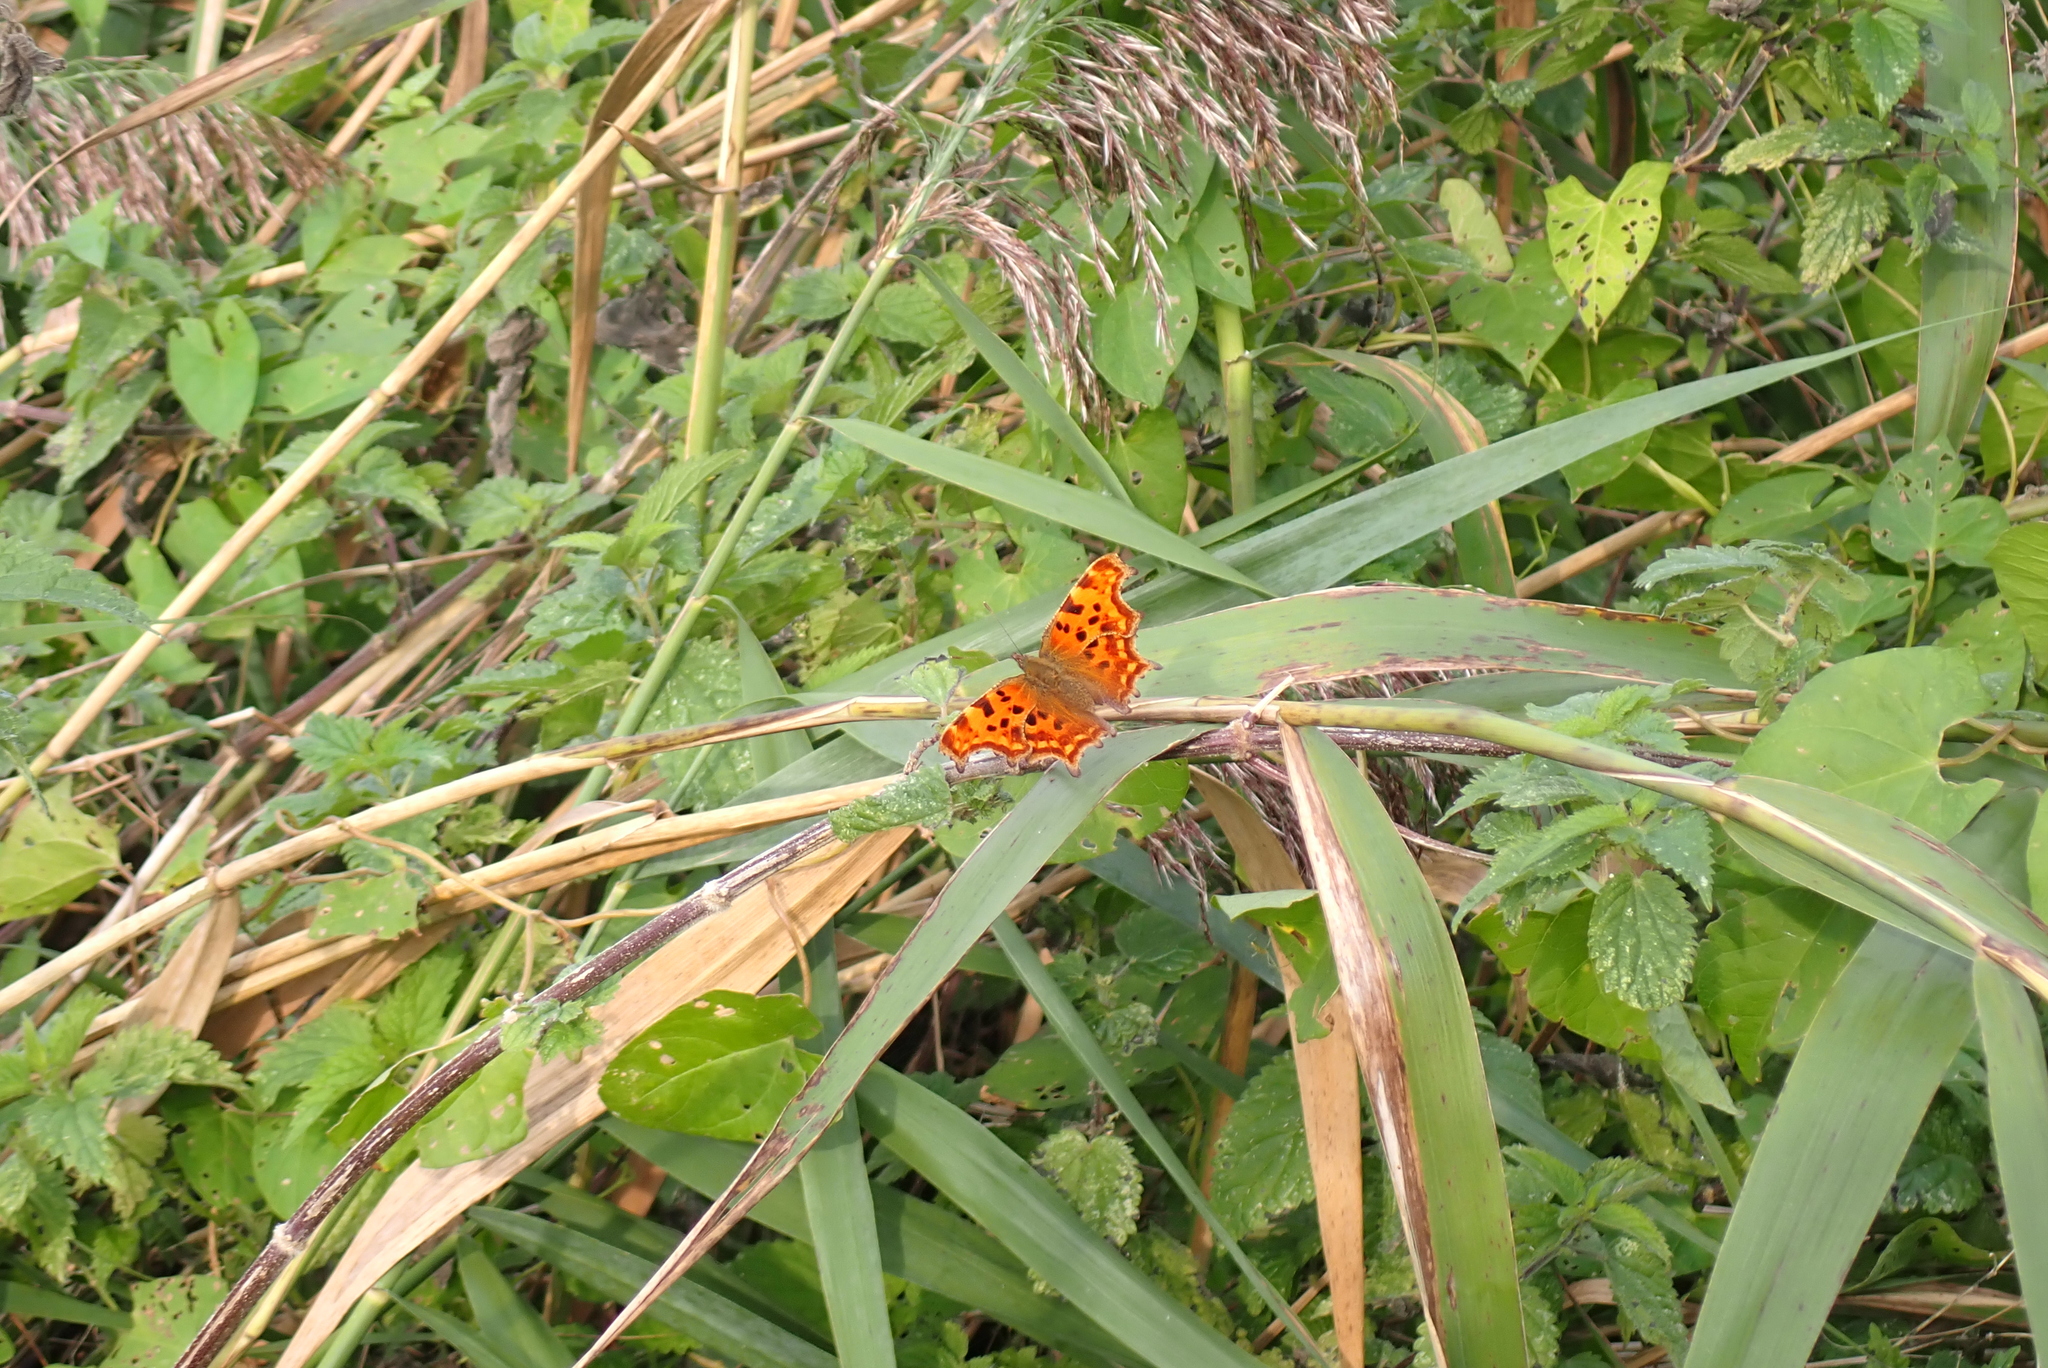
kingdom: Animalia
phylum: Arthropoda
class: Insecta
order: Lepidoptera
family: Nymphalidae
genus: Polygonia
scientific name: Polygonia c-album
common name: Comma
